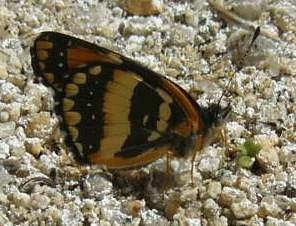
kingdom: Animalia
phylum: Arthropoda
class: Insecta
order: Lepidoptera
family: Nymphalidae
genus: Chlosyne
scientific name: Chlosyne californica
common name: California patch
